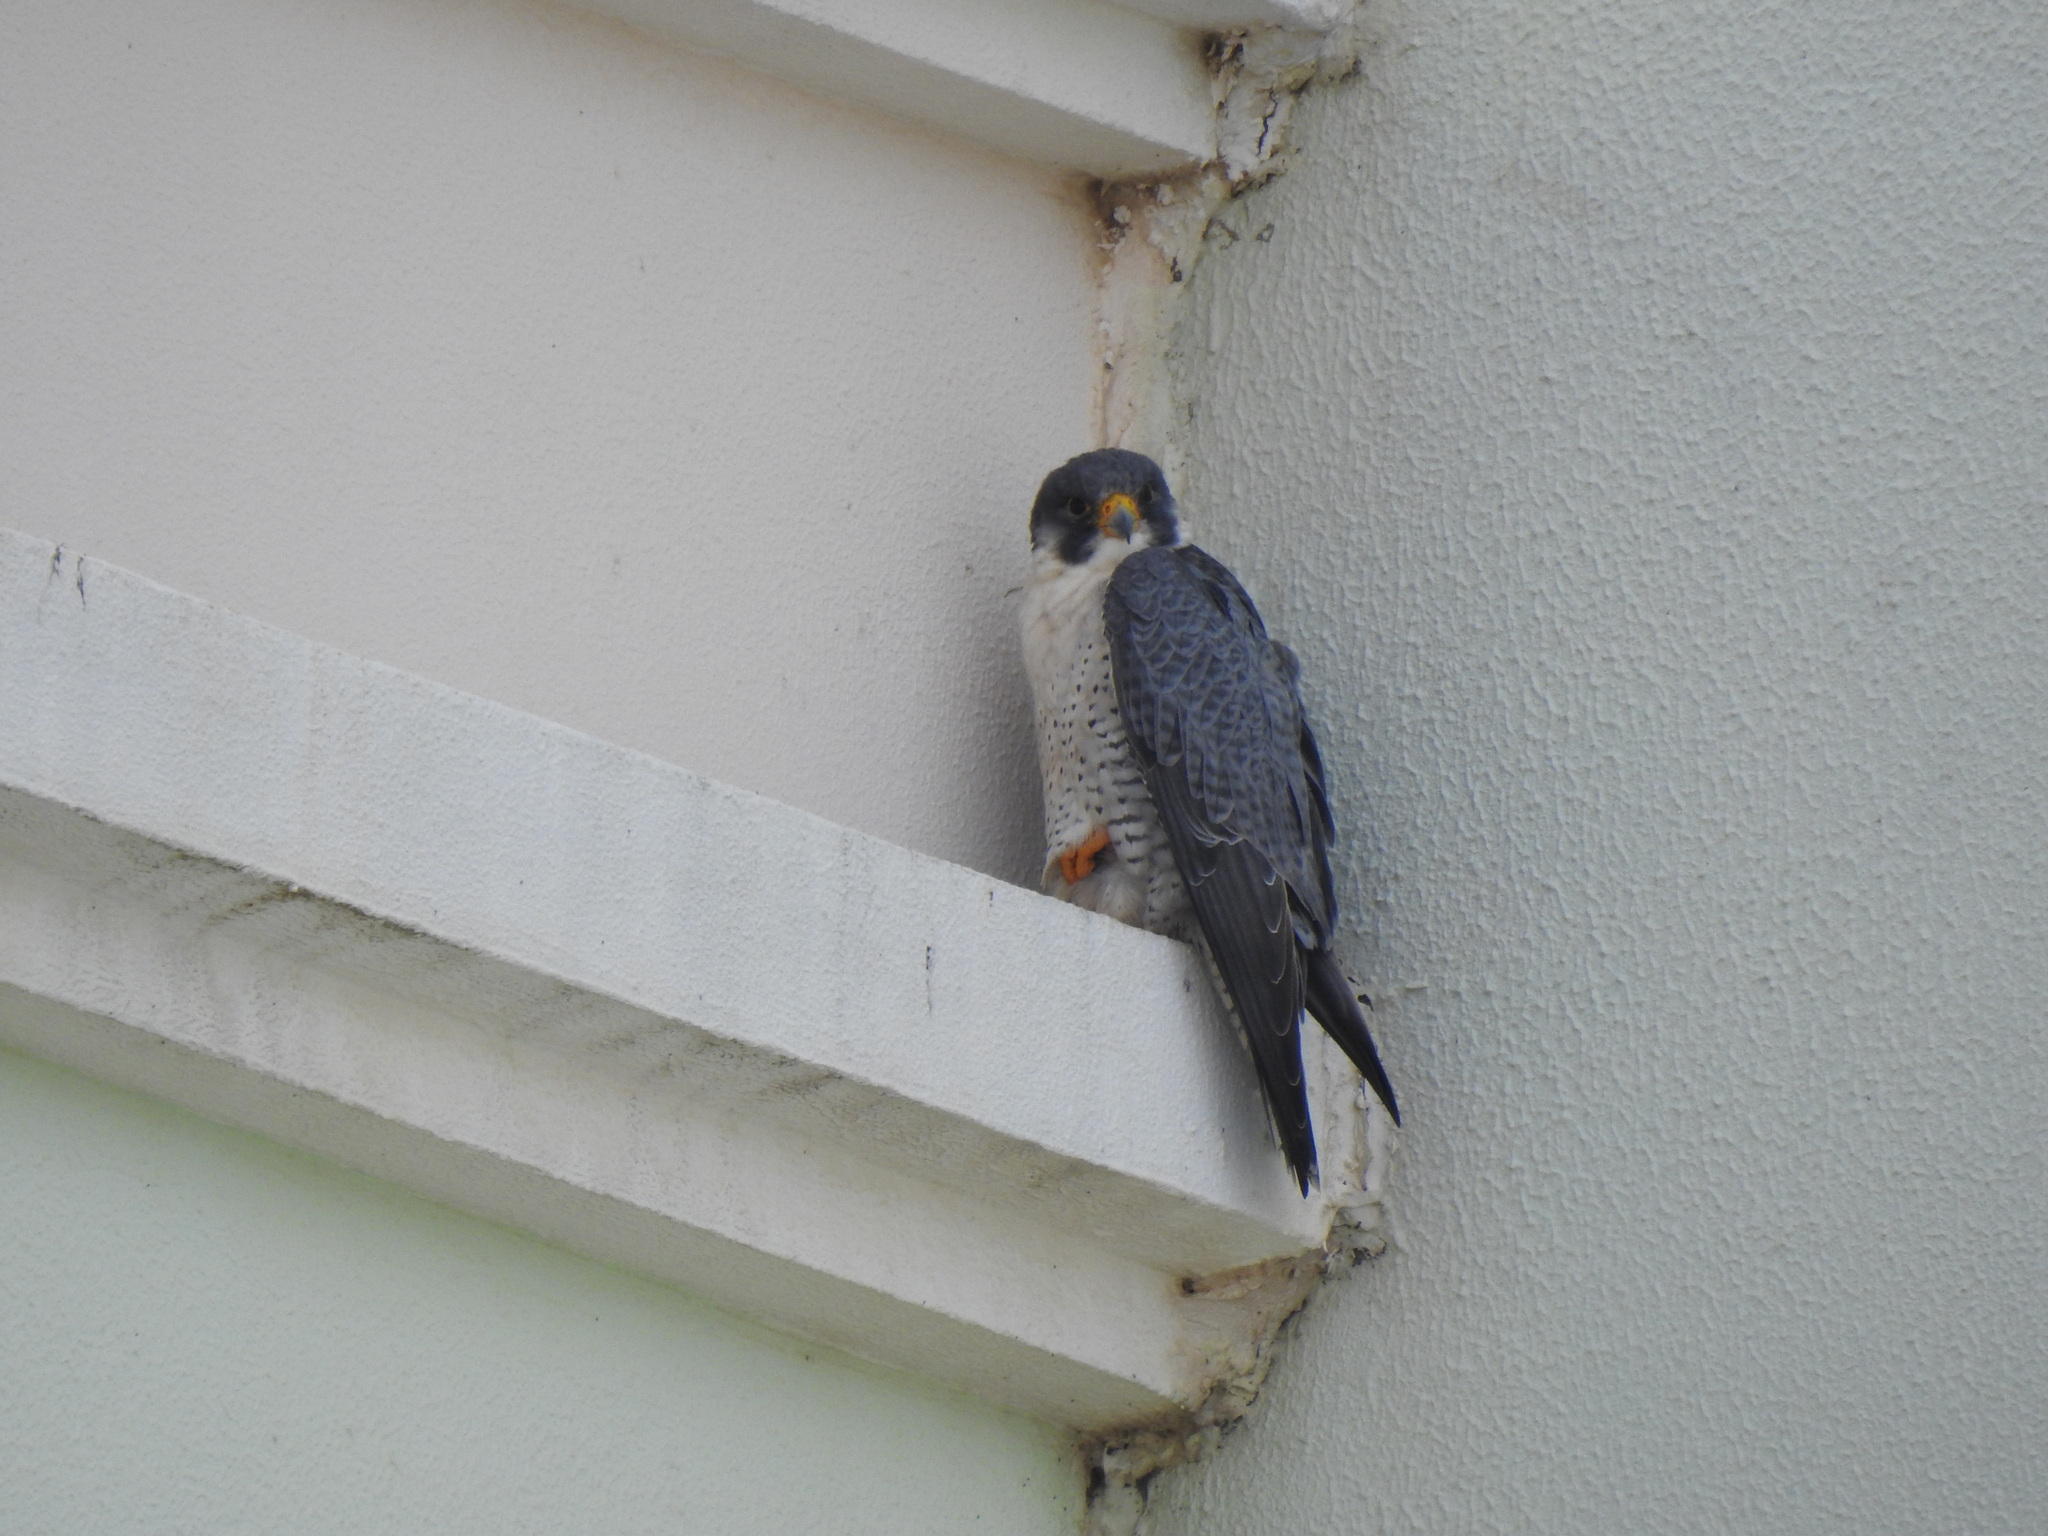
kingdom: Animalia
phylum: Chordata
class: Aves
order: Falconiformes
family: Falconidae
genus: Falco
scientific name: Falco peregrinus
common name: Peregrine falcon
